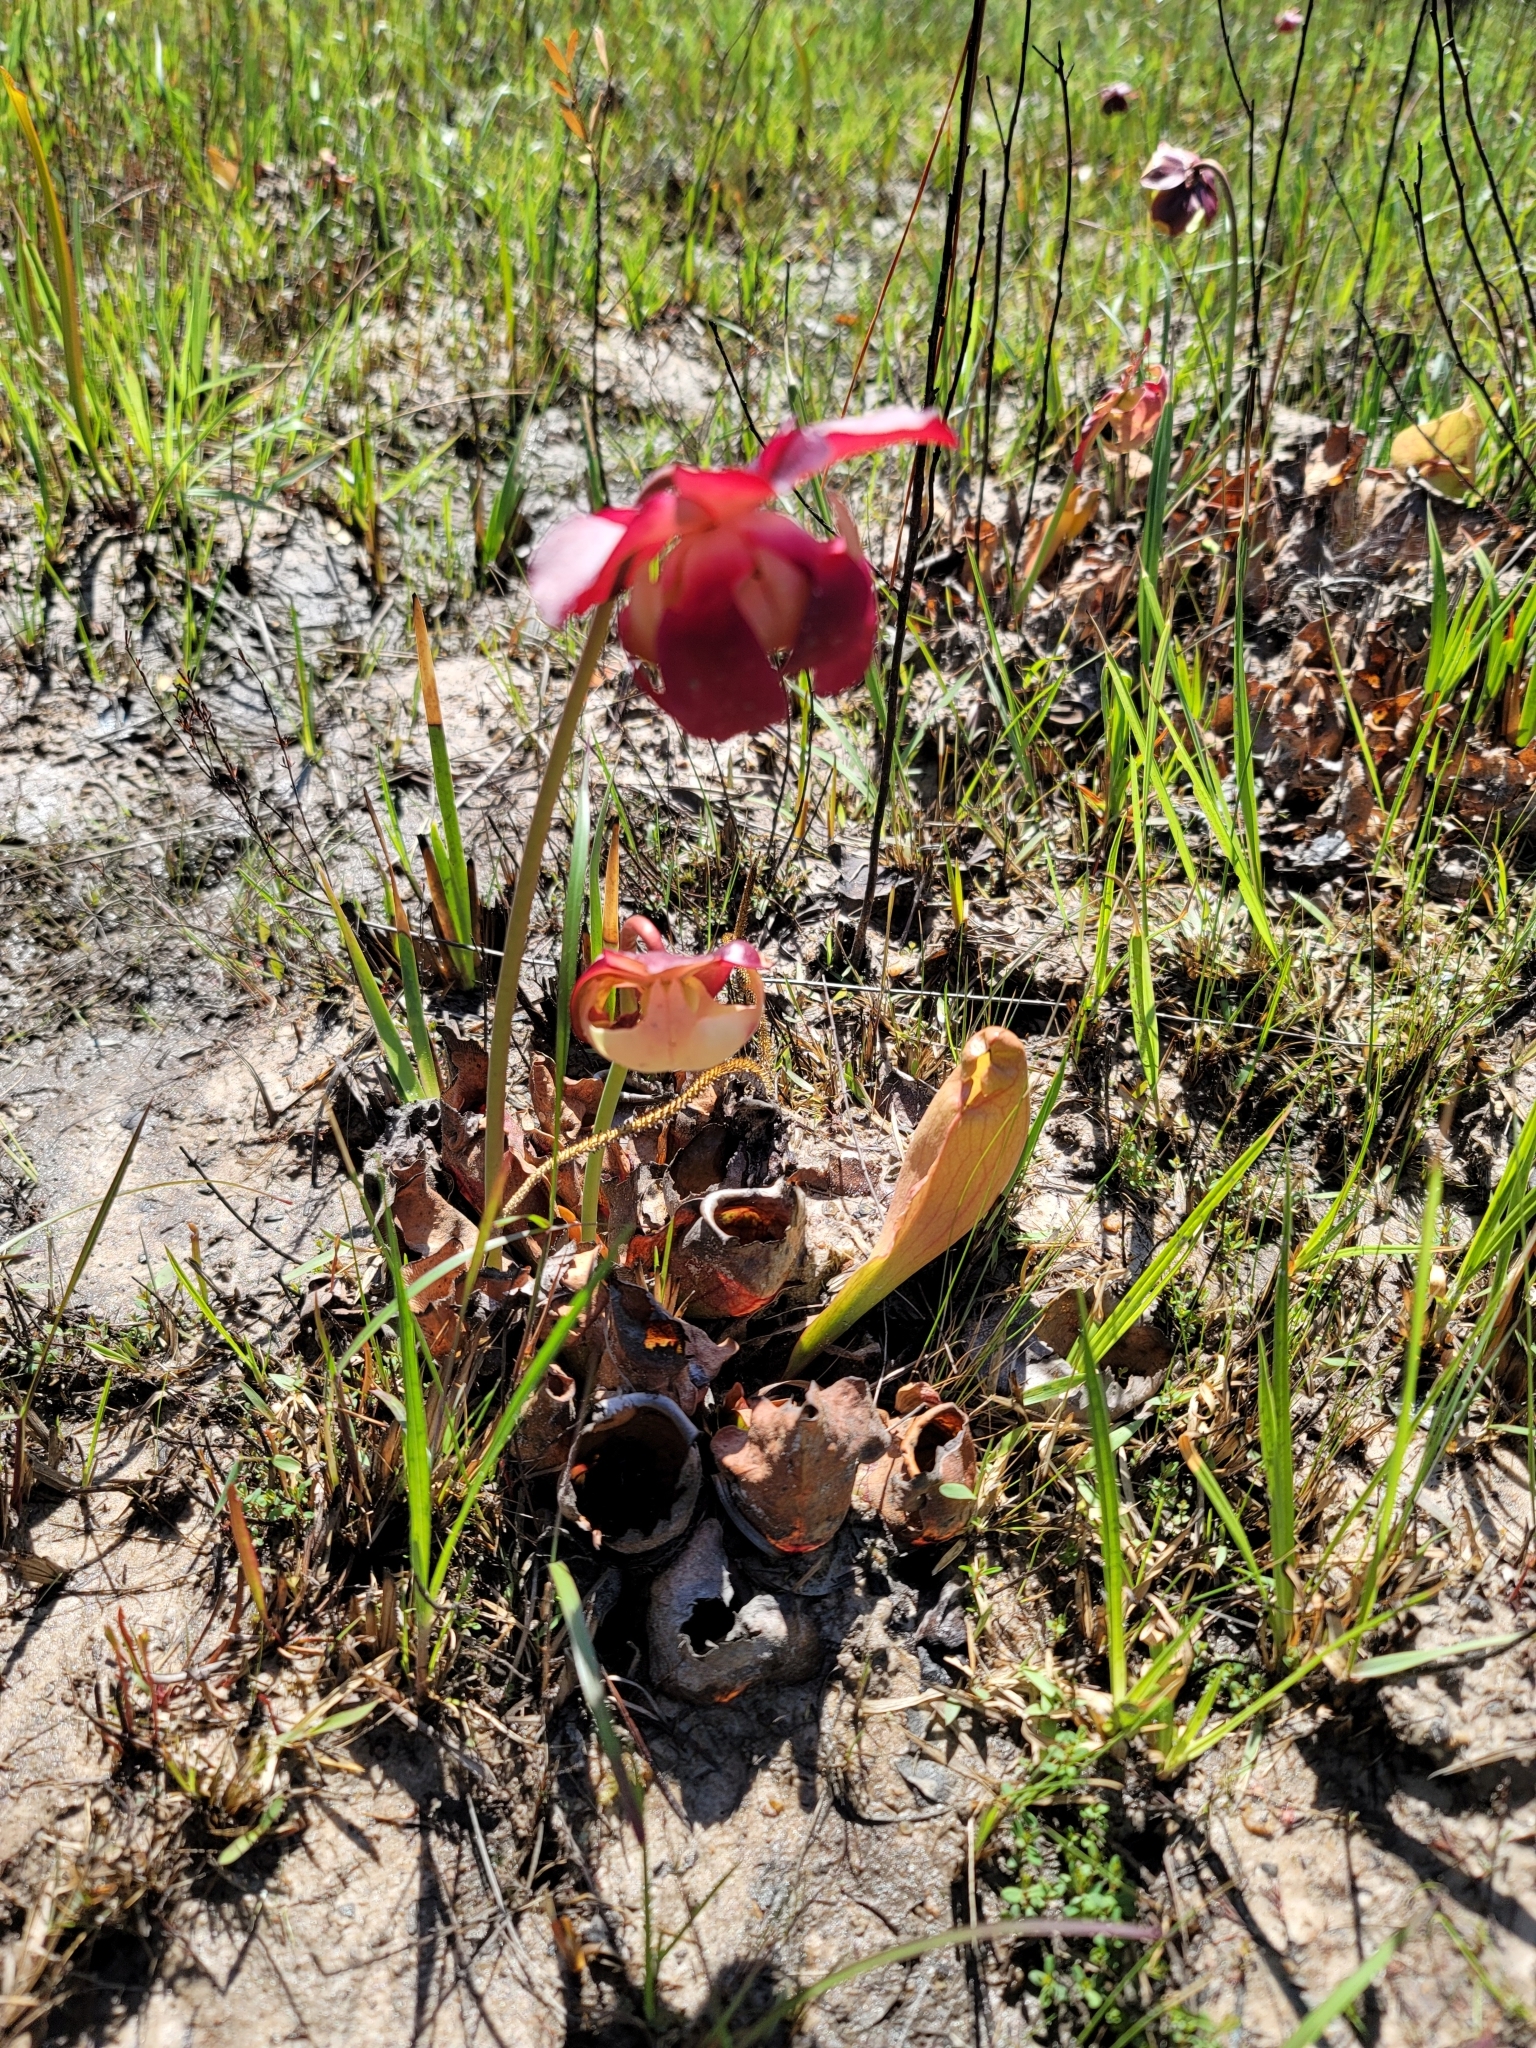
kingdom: Plantae
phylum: Tracheophyta
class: Magnoliopsida
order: Ericales
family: Sarraceniaceae
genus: Sarracenia
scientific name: Sarracenia rosea
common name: Pink pitcherplant
